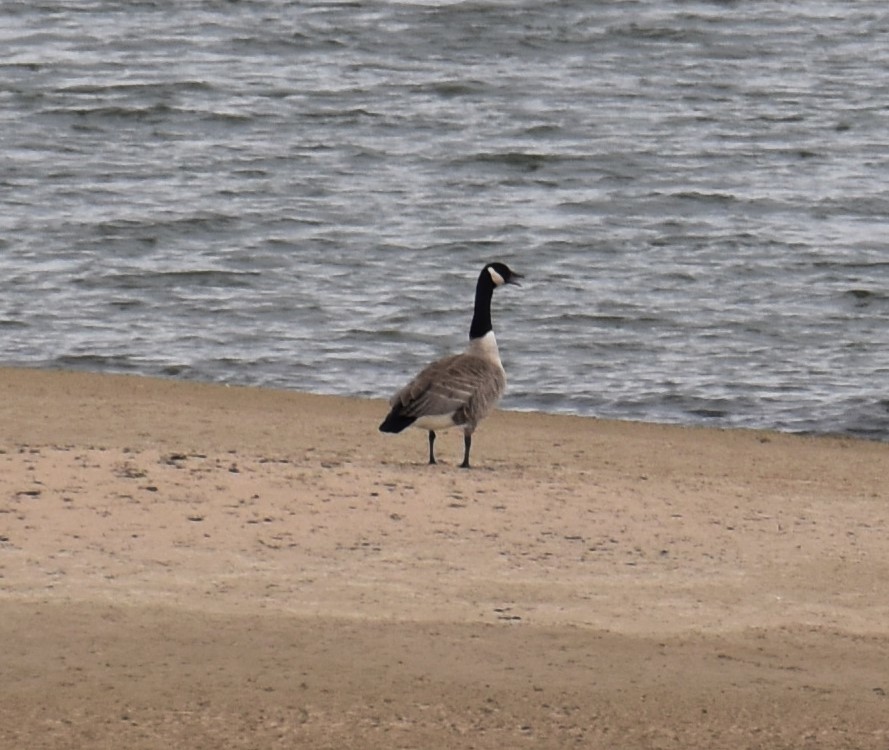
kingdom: Animalia
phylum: Chordata
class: Aves
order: Anseriformes
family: Anatidae
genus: Branta
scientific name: Branta canadensis
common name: Canada goose
